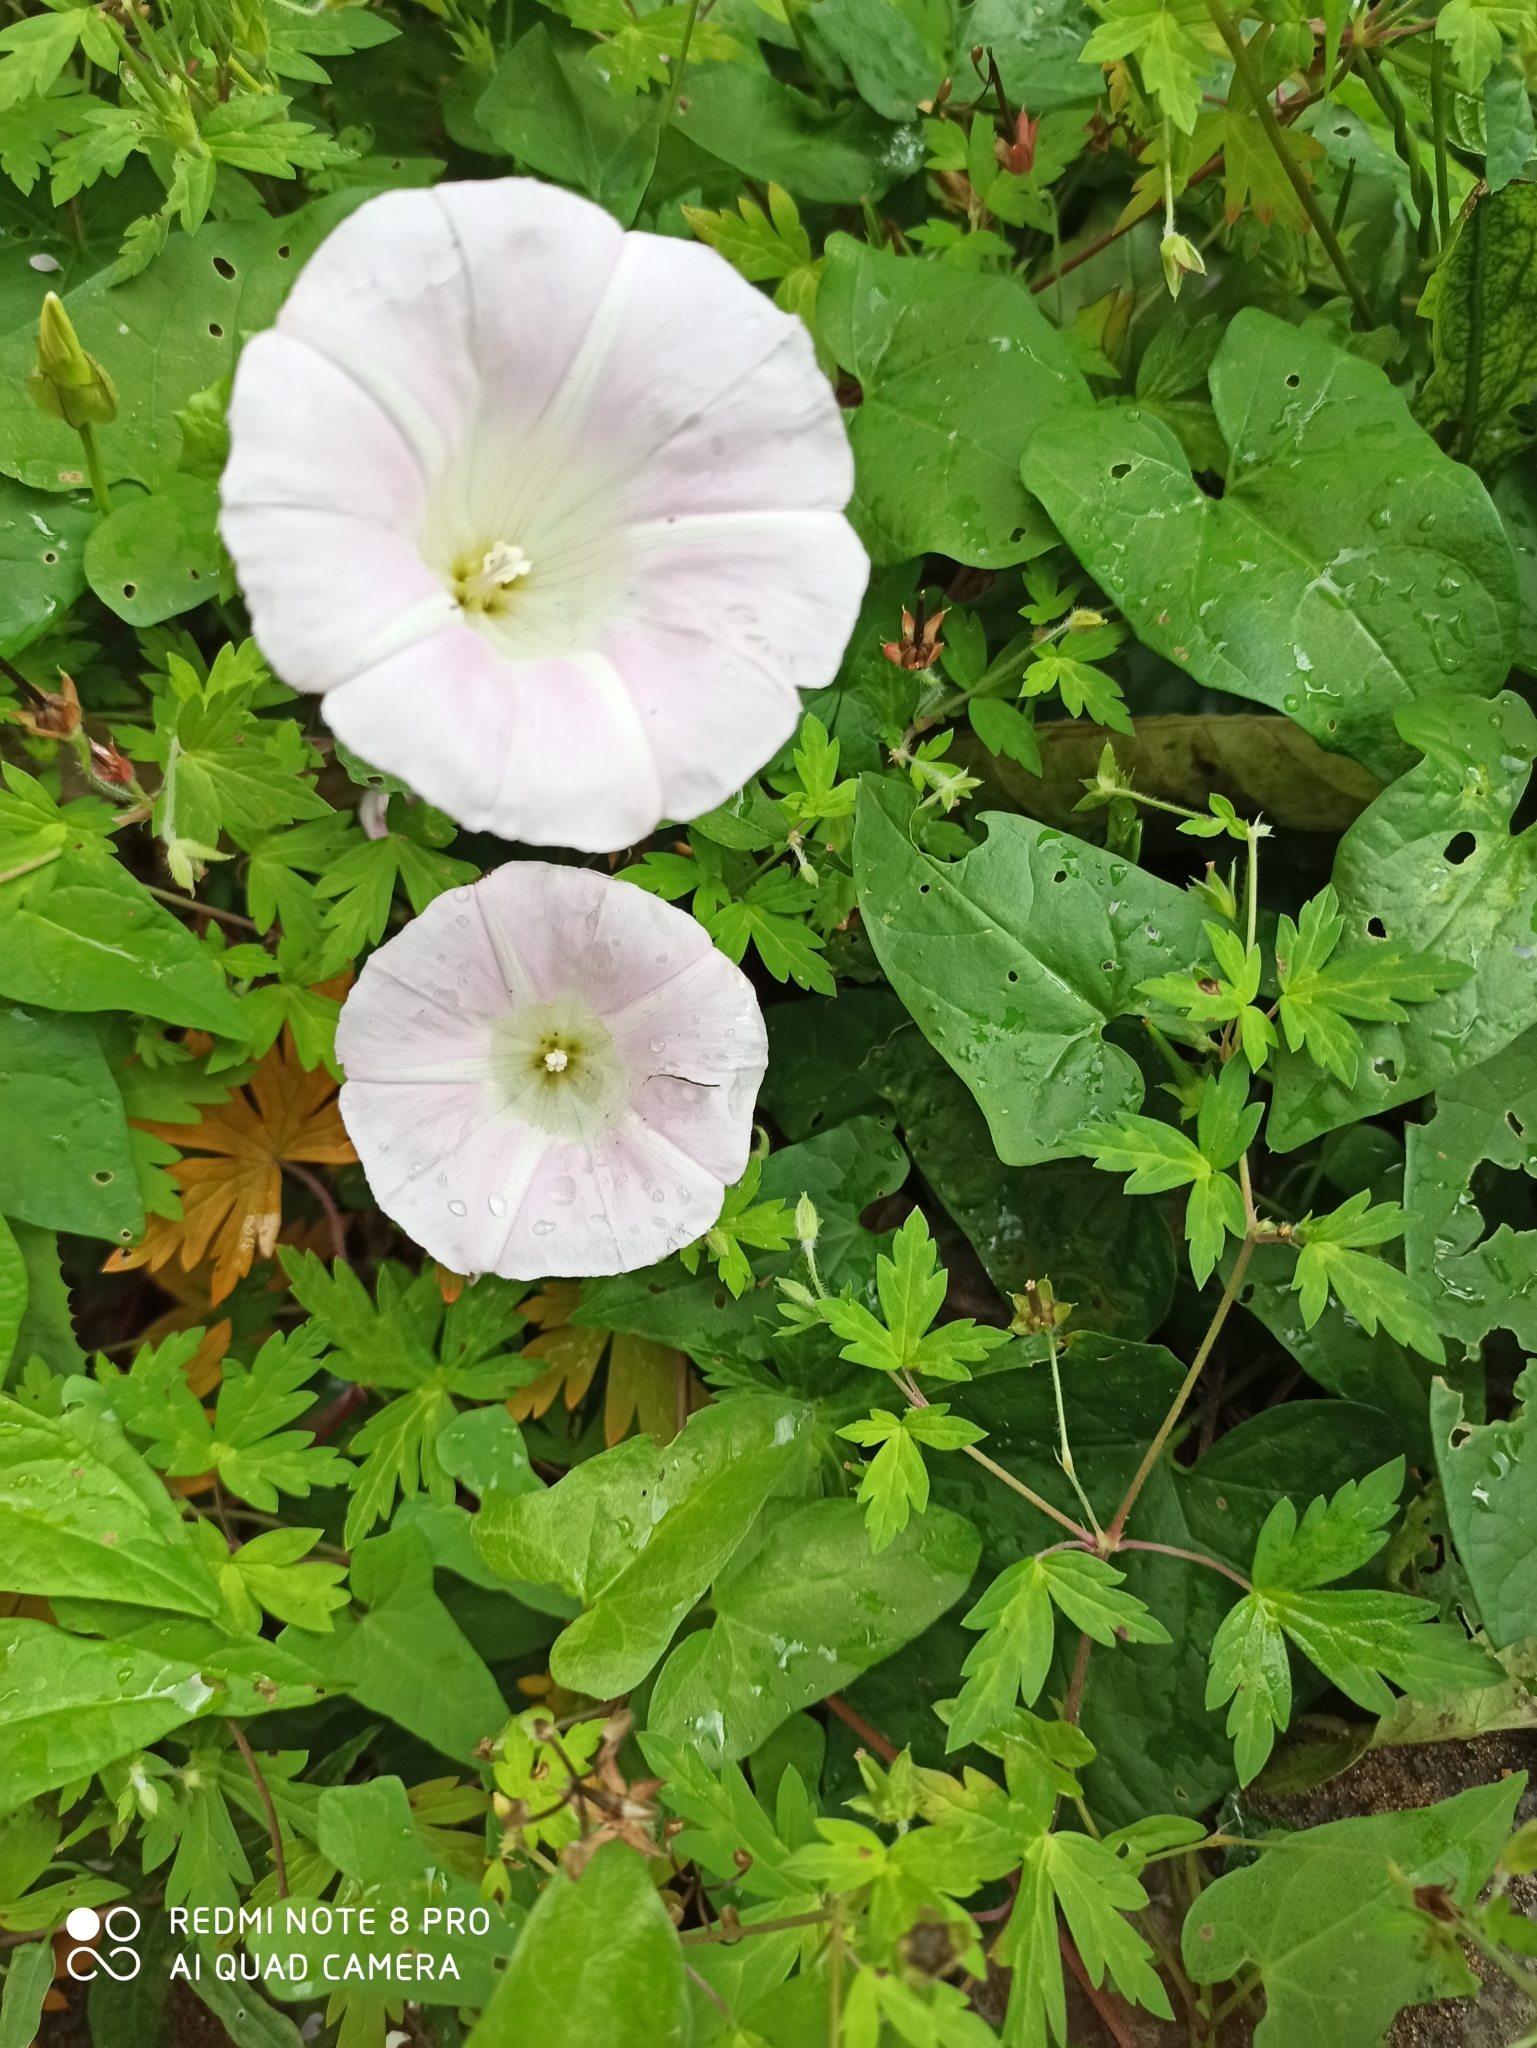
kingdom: Plantae
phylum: Tracheophyta
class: Magnoliopsida
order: Solanales
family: Convolvulaceae
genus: Calystegia
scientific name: Calystegia sepium
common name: Hedge bindweed
